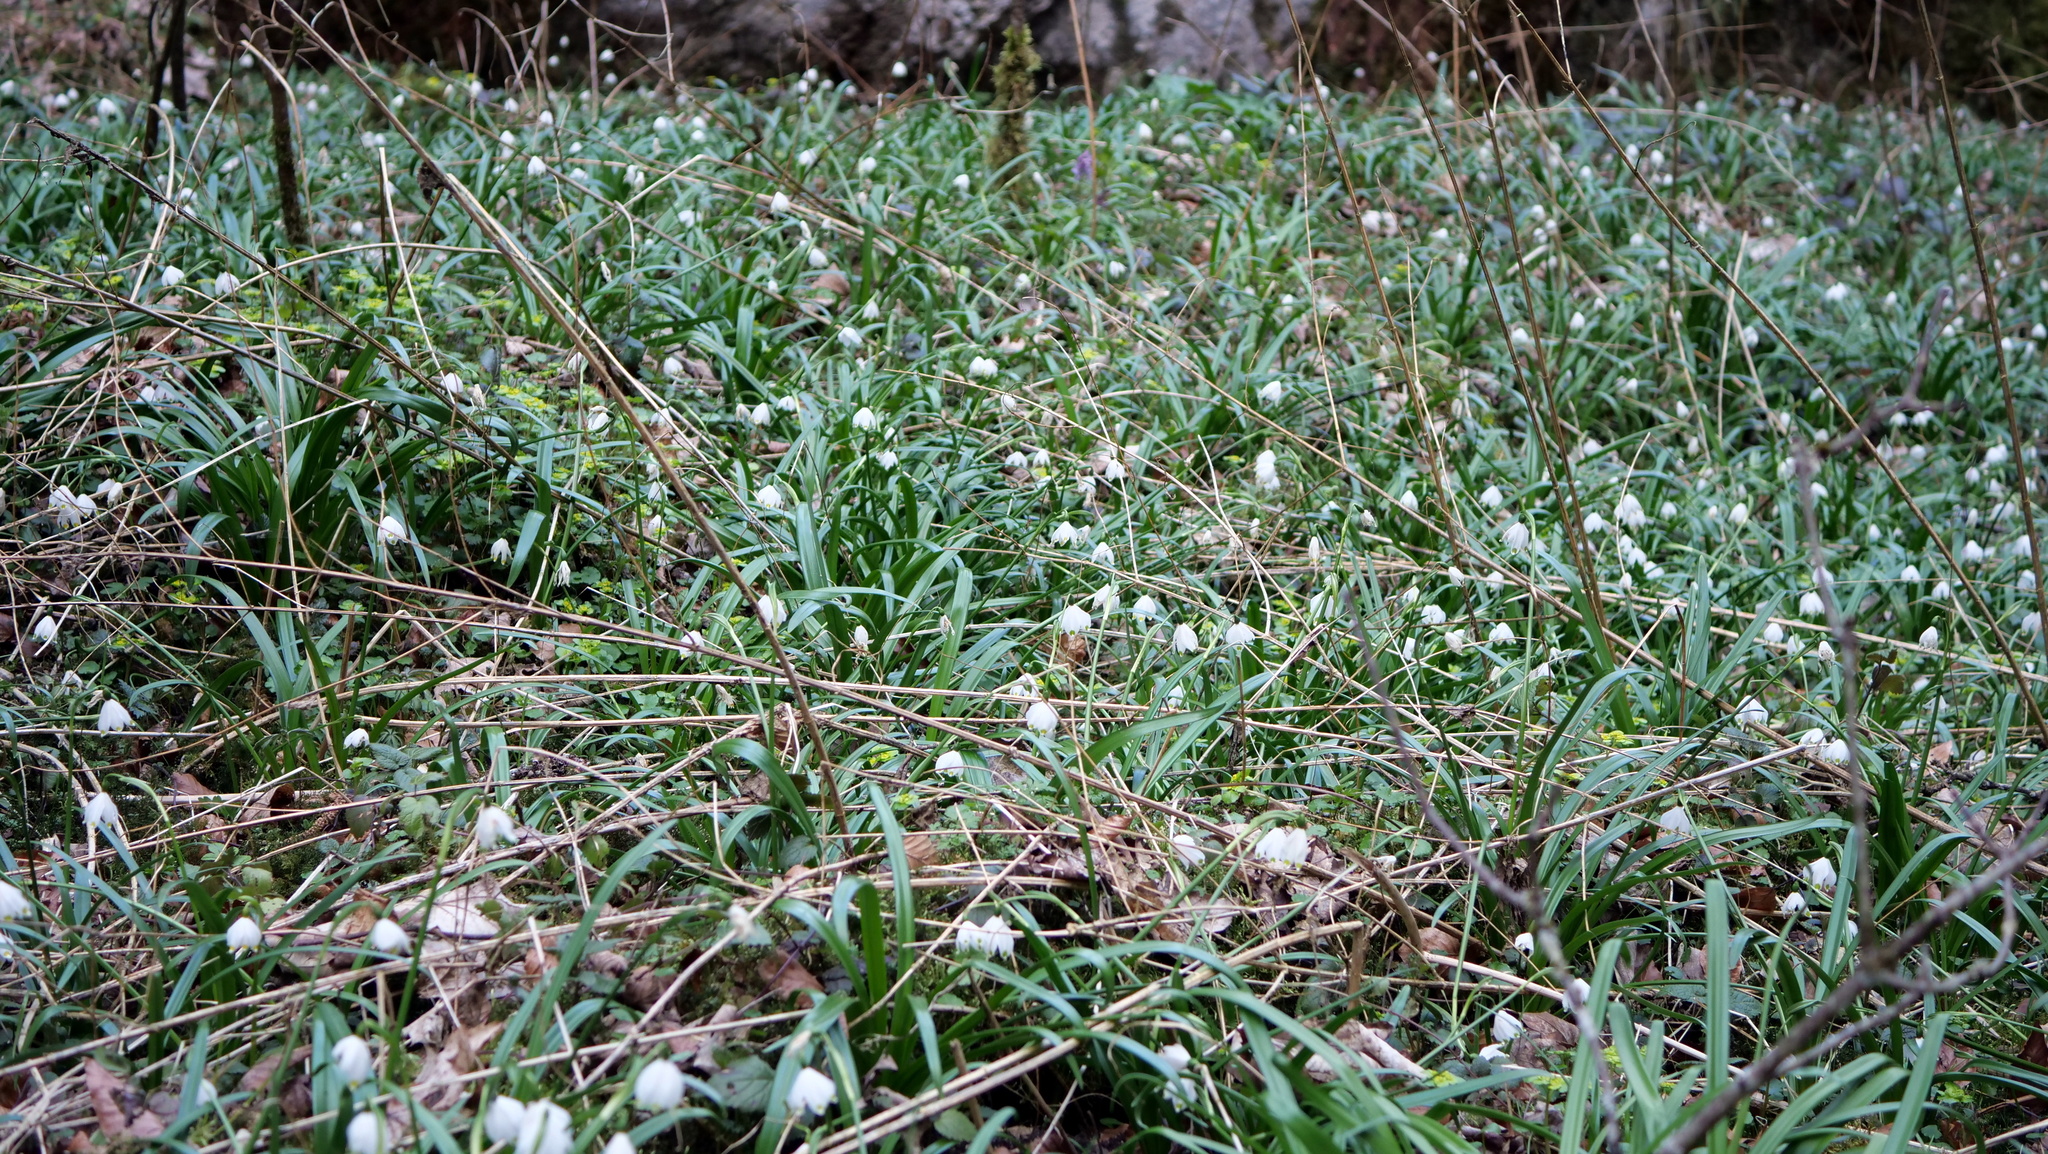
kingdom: Plantae
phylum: Tracheophyta
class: Liliopsida
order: Asparagales
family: Amaryllidaceae
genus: Leucojum
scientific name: Leucojum vernum
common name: Spring snowflake
